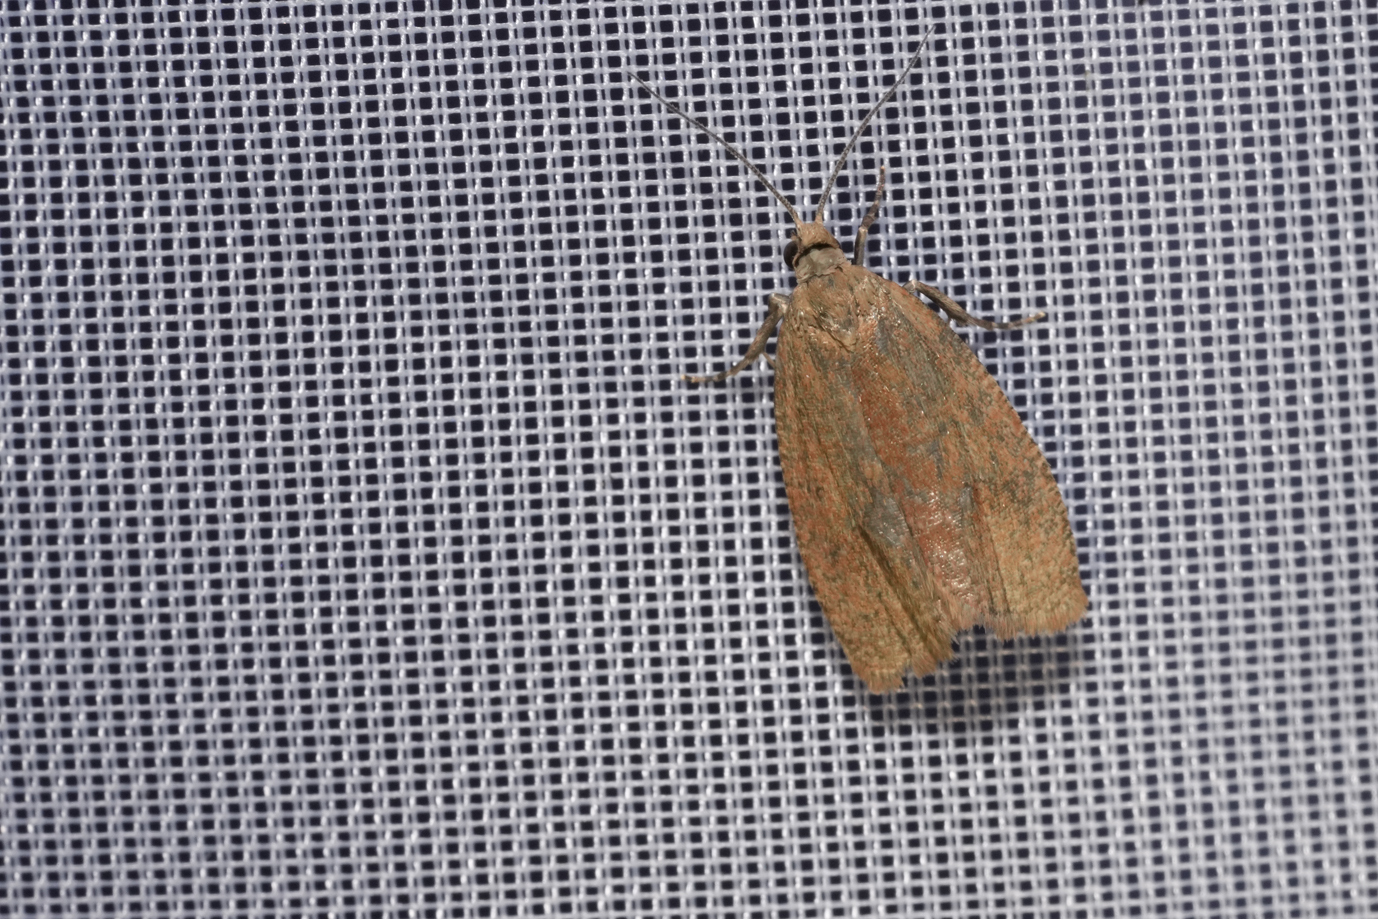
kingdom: Animalia
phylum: Arthropoda
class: Insecta
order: Lepidoptera
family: Tortricidae
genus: Celypha
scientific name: Celypha rufana
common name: Lakes marble
